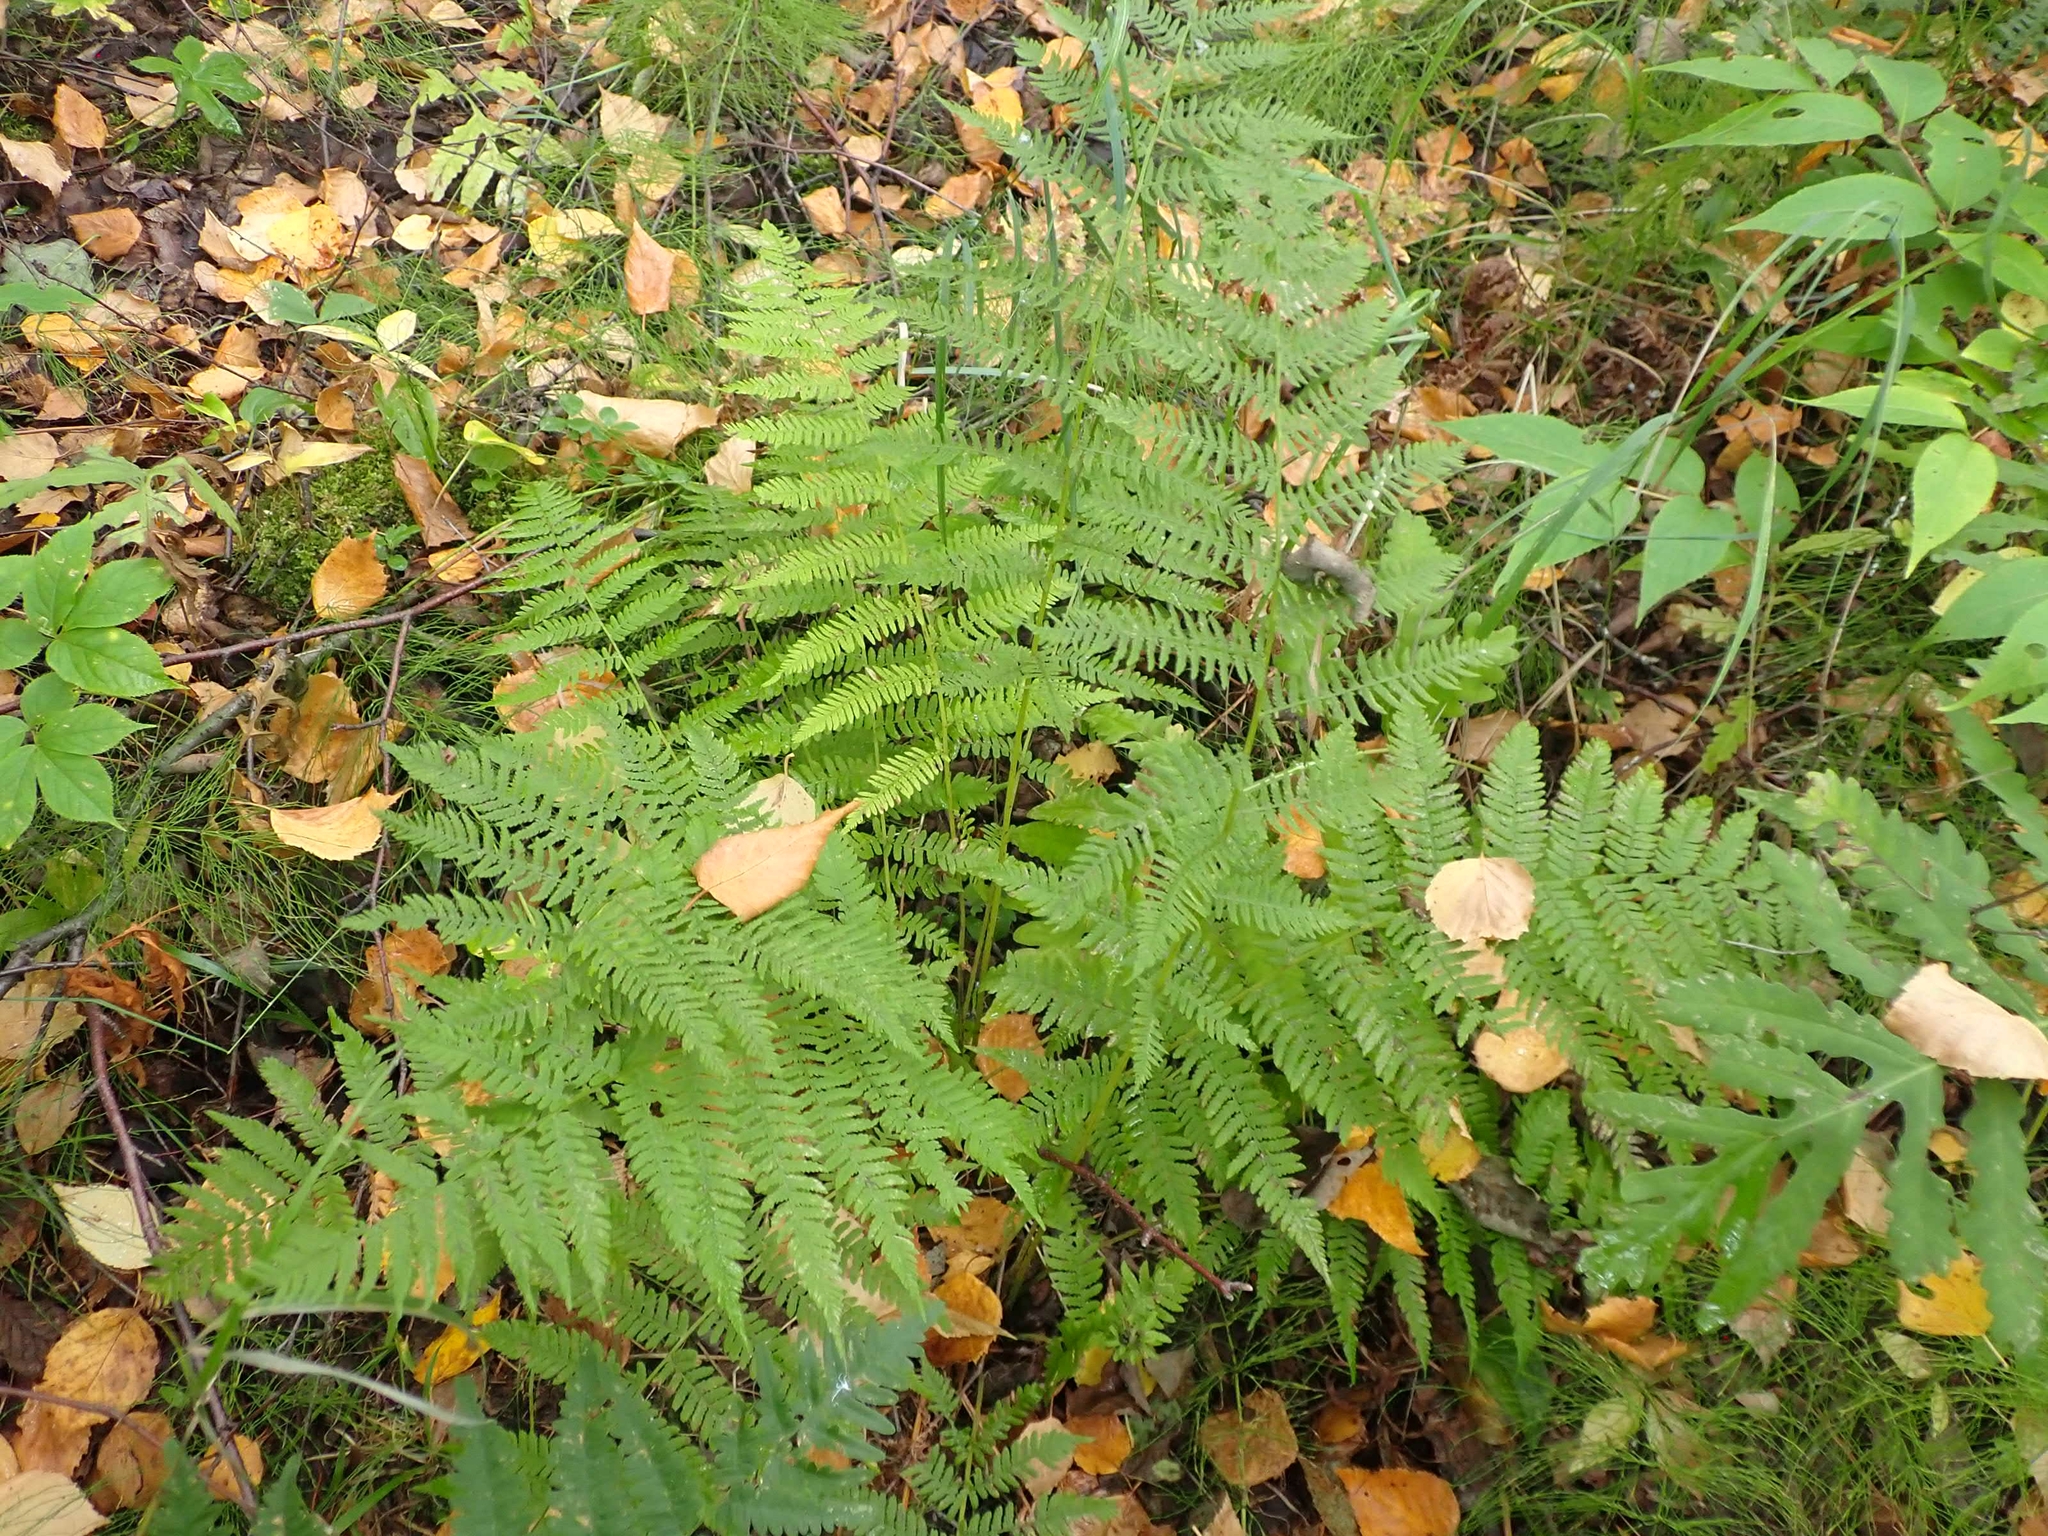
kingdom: Plantae
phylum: Tracheophyta
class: Polypodiopsida
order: Polypodiales
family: Athyriaceae
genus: Athyrium
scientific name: Athyrium angustum
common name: Northern lady fern
